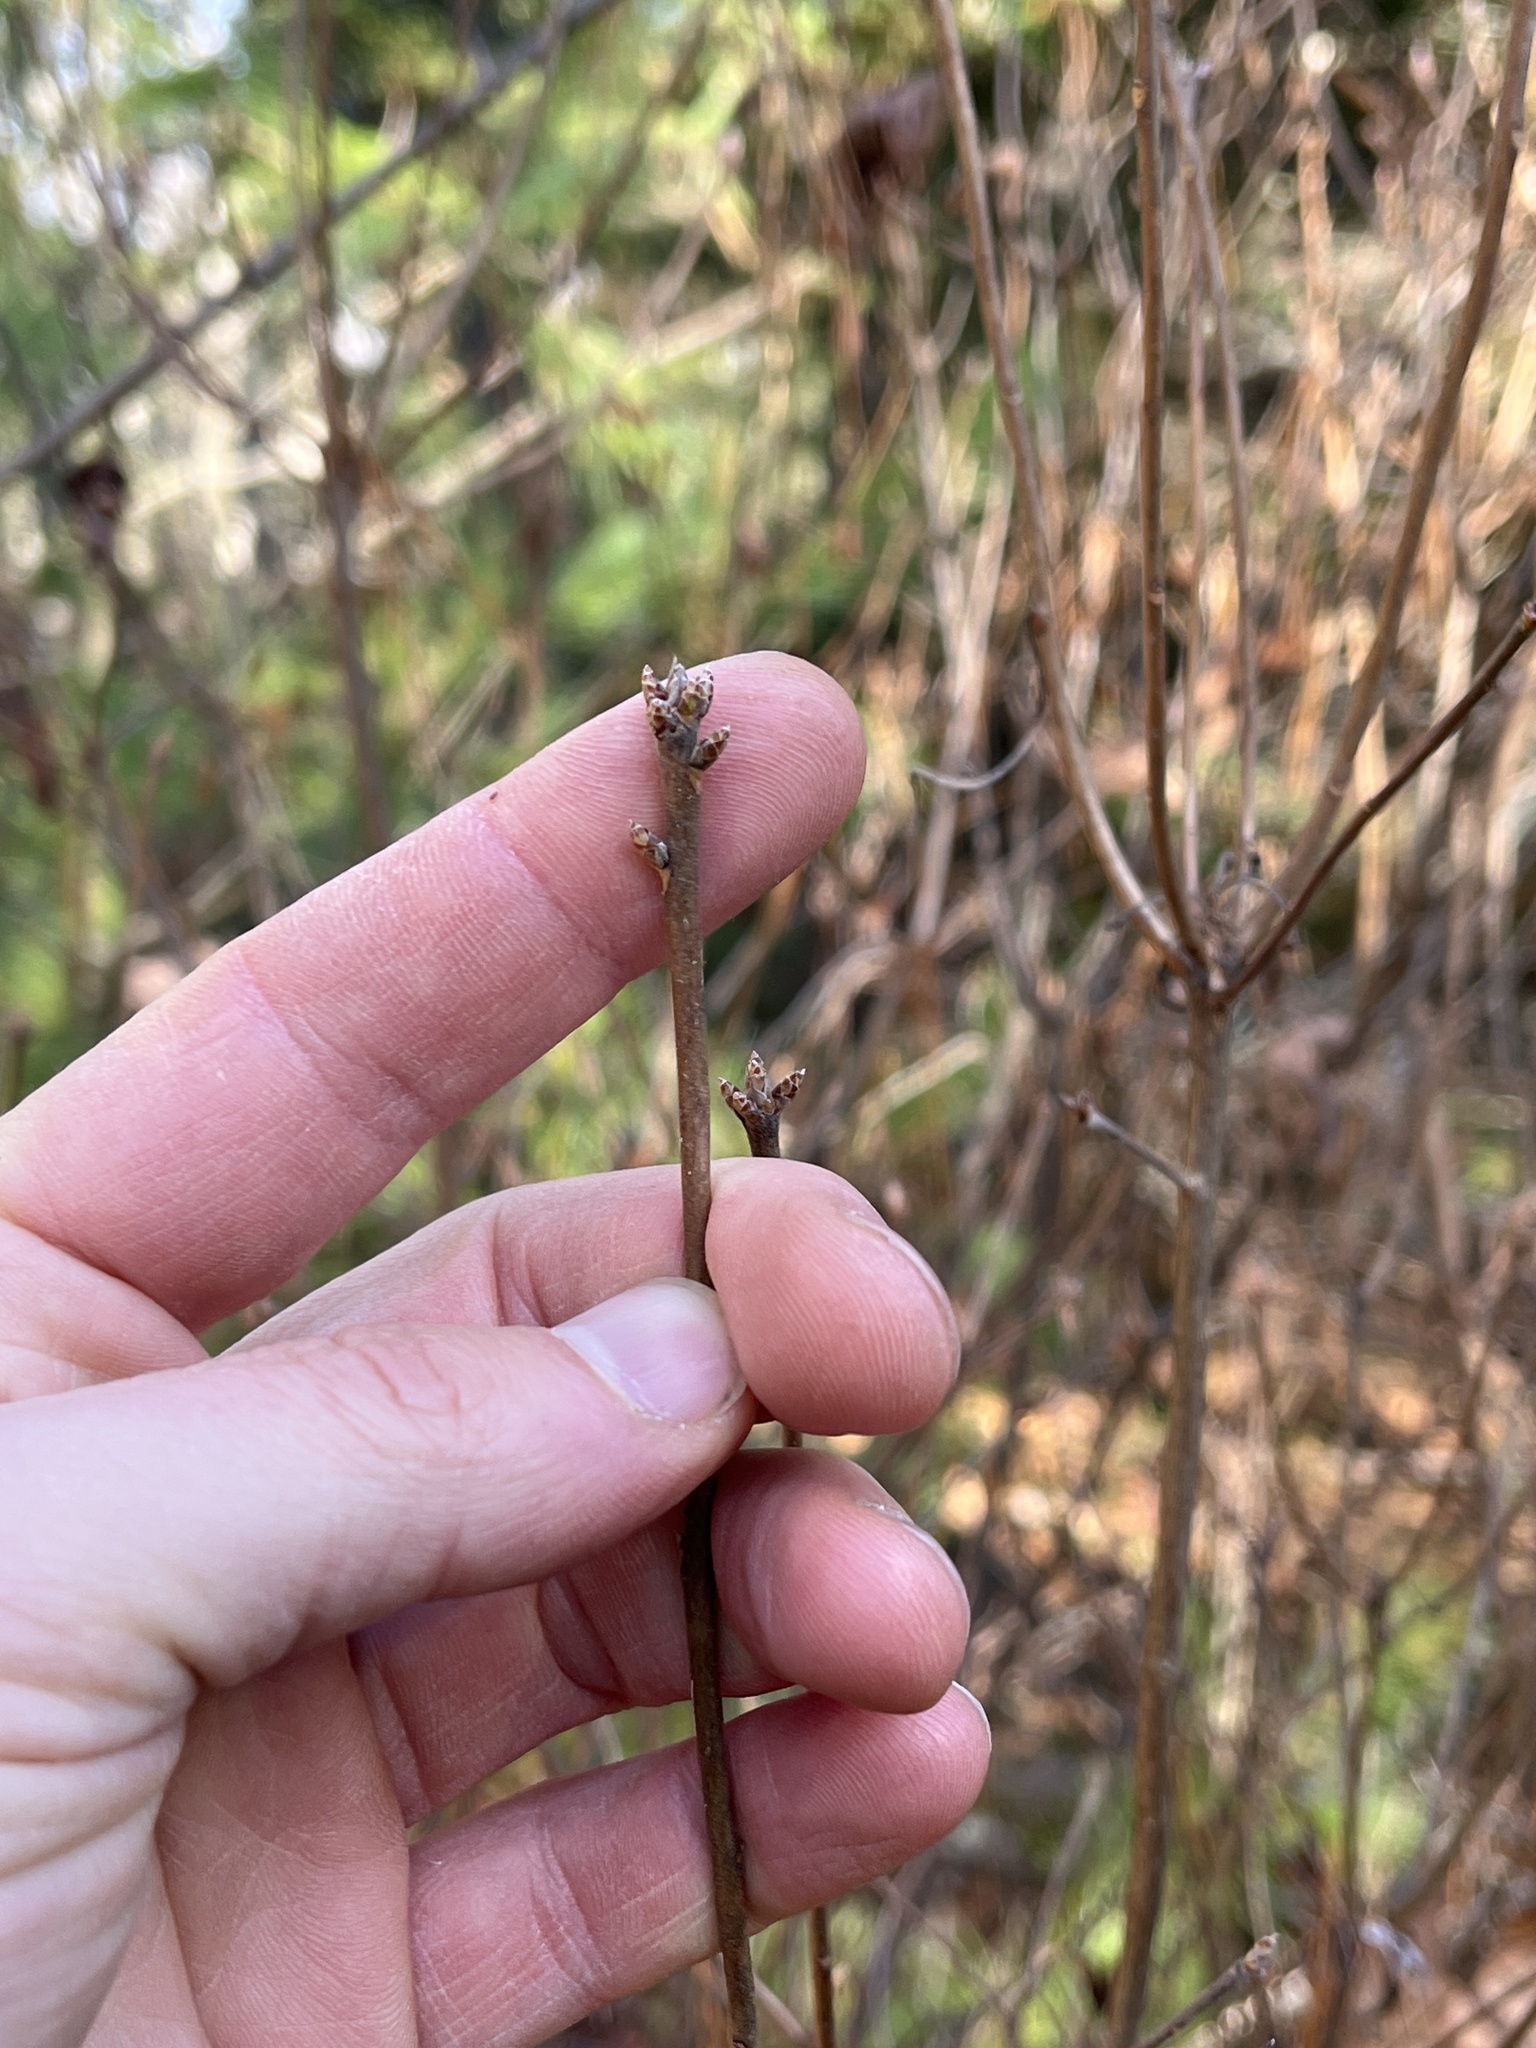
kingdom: Plantae
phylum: Tracheophyta
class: Magnoliopsida
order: Ericales
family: Ericaceae
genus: Rhododendron
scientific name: Rhododendron viscosum
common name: Clammy azalea
